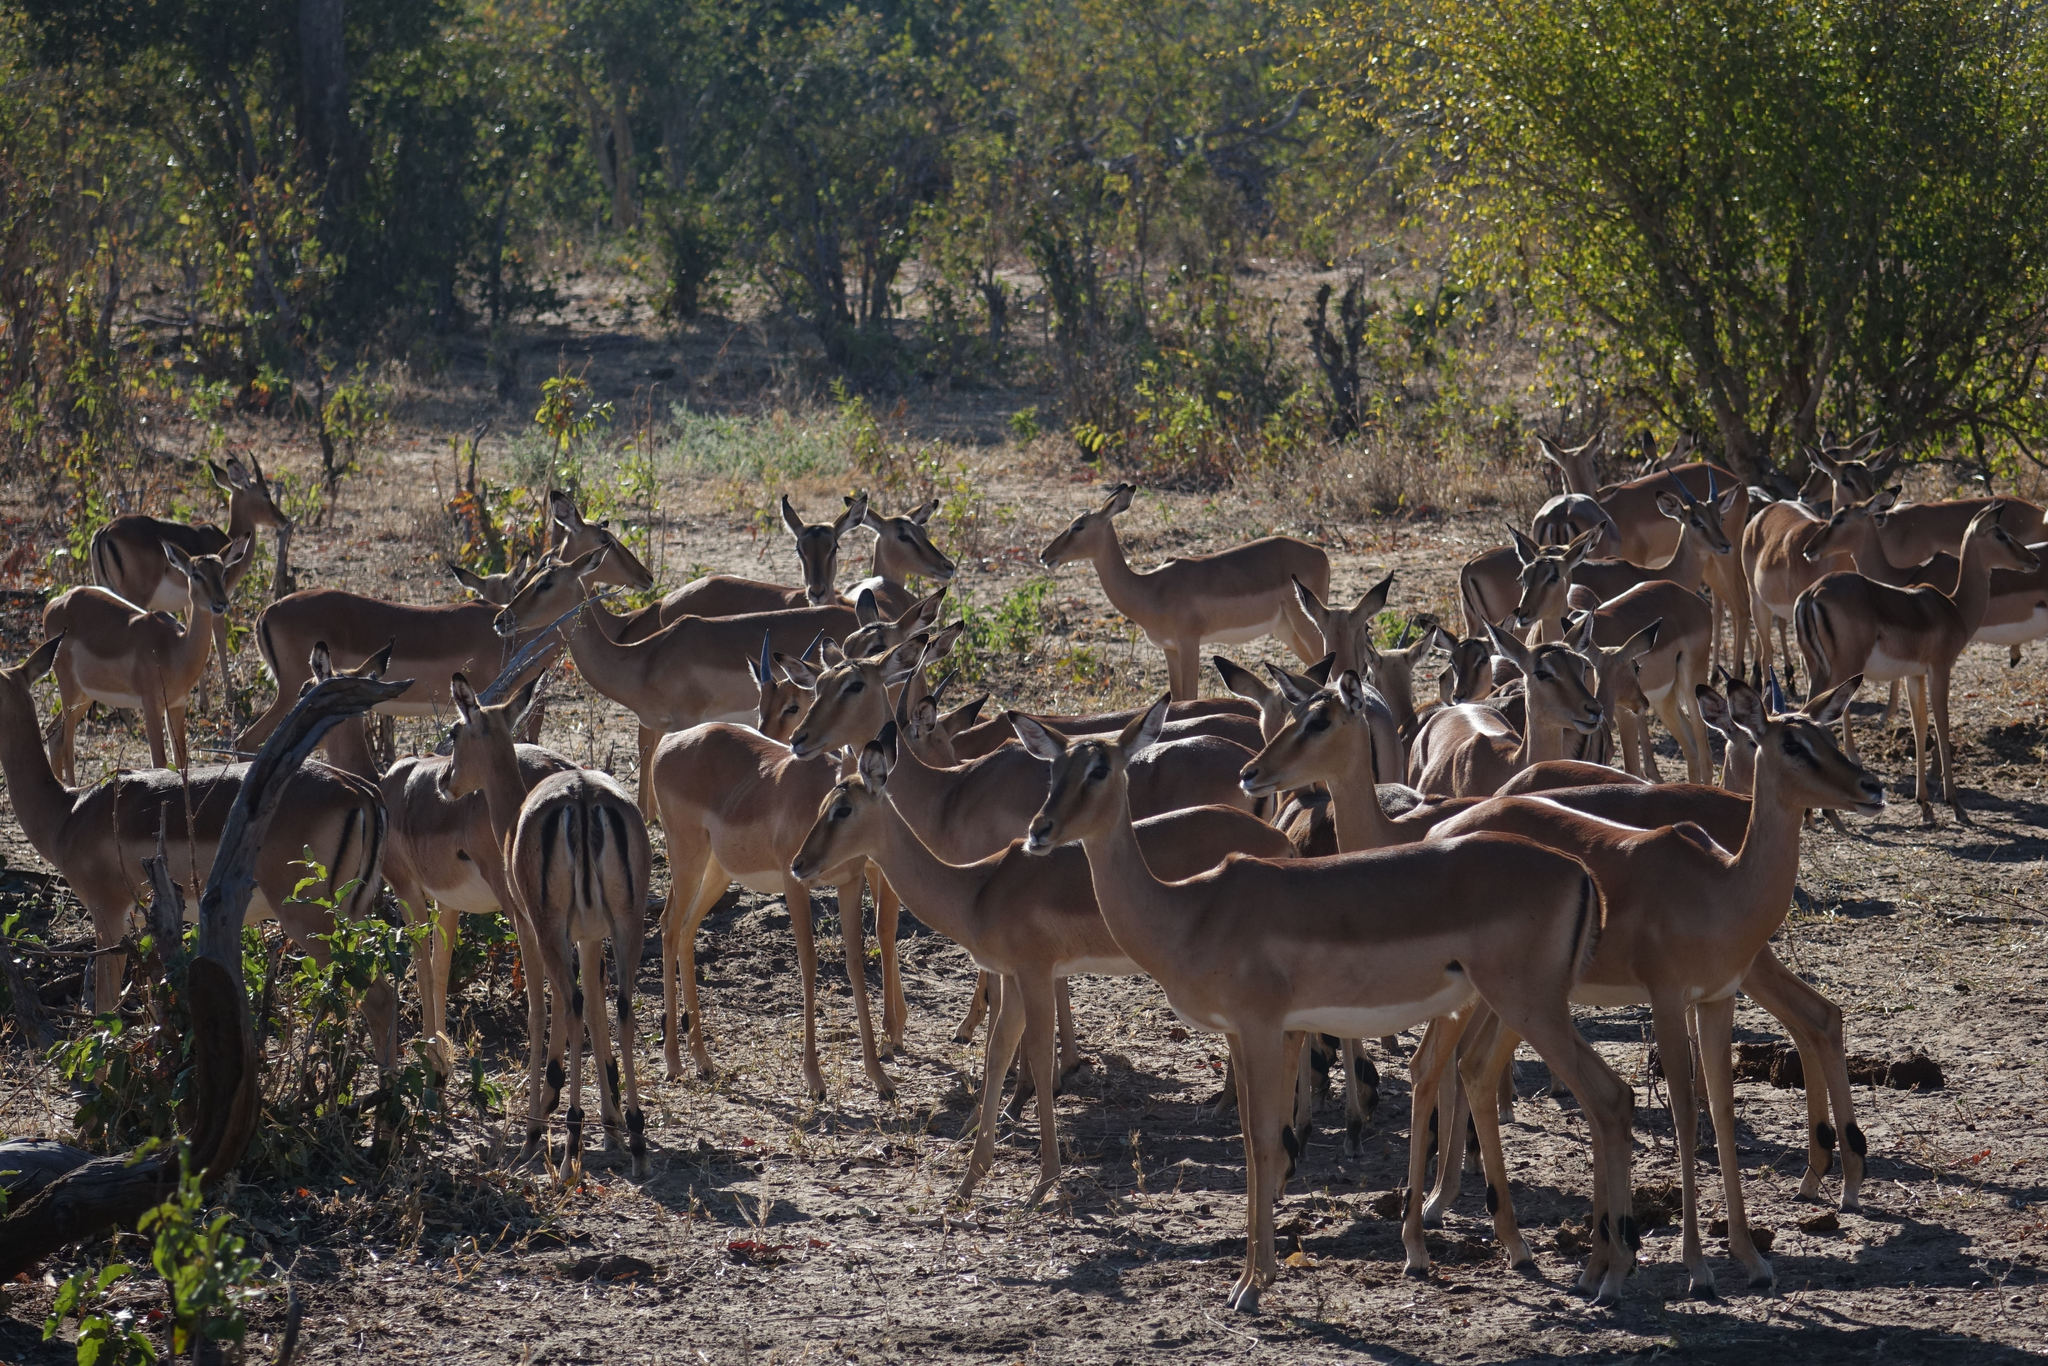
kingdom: Animalia
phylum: Chordata
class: Mammalia
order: Artiodactyla
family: Bovidae
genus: Aepyceros
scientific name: Aepyceros melampus
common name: Impala
